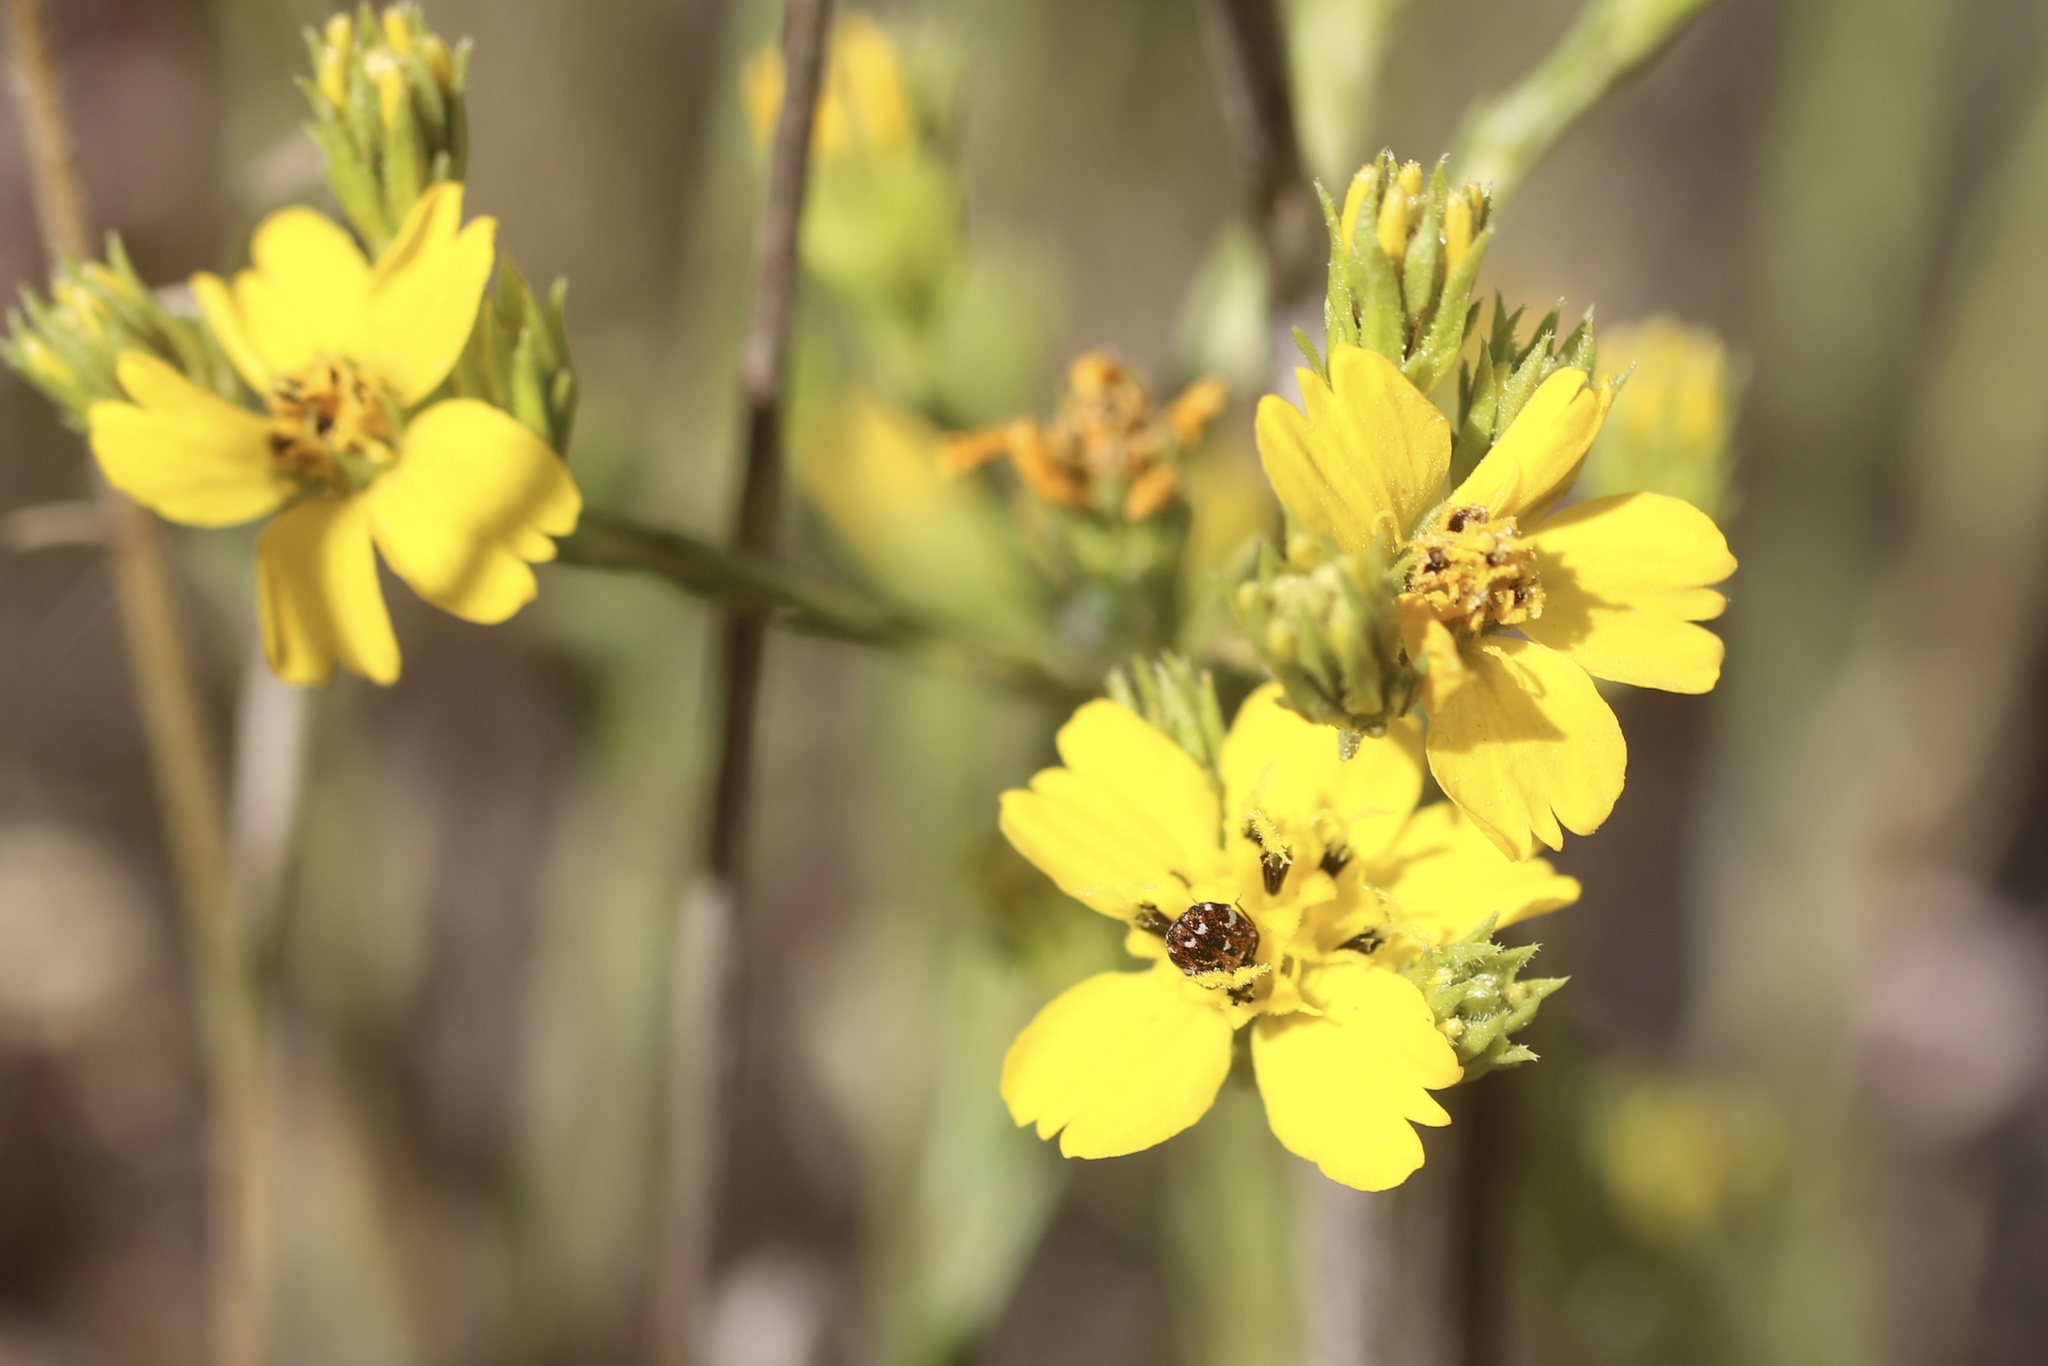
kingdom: Plantae
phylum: Tracheophyta
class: Magnoliopsida
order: Asterales
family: Asteraceae
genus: Deinandra
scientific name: Deinandra fasciculata
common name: Clustered tarweed
